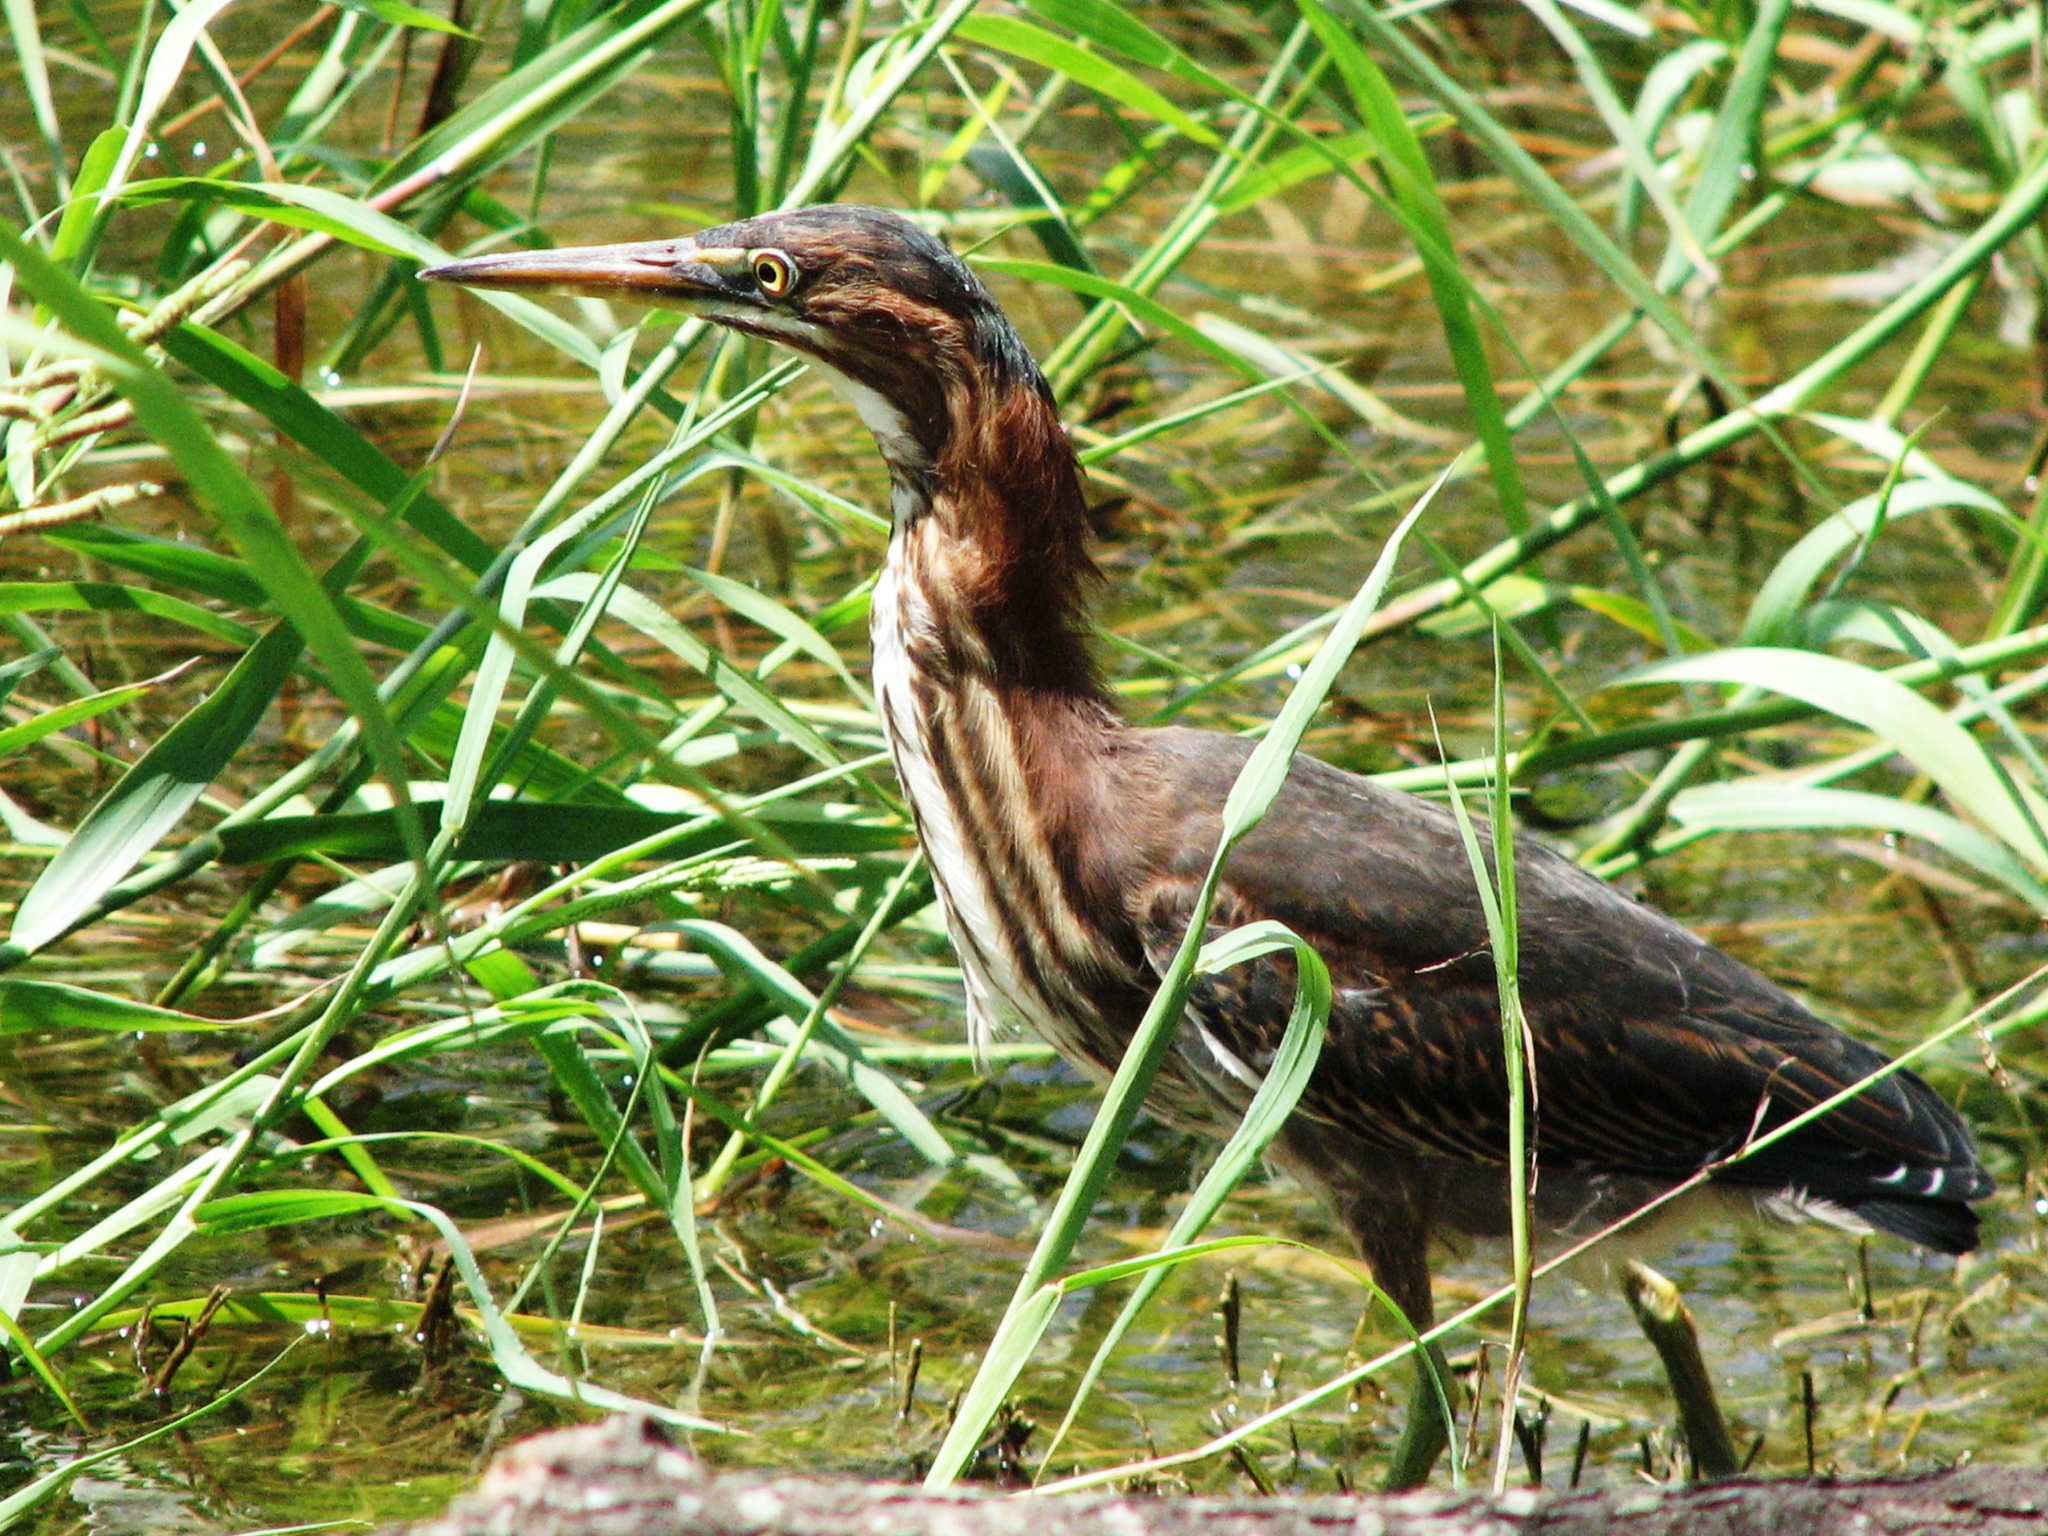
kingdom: Animalia
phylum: Chordata
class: Aves
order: Pelecaniformes
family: Ardeidae
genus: Butorides
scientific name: Butorides virescens
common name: Green heron
